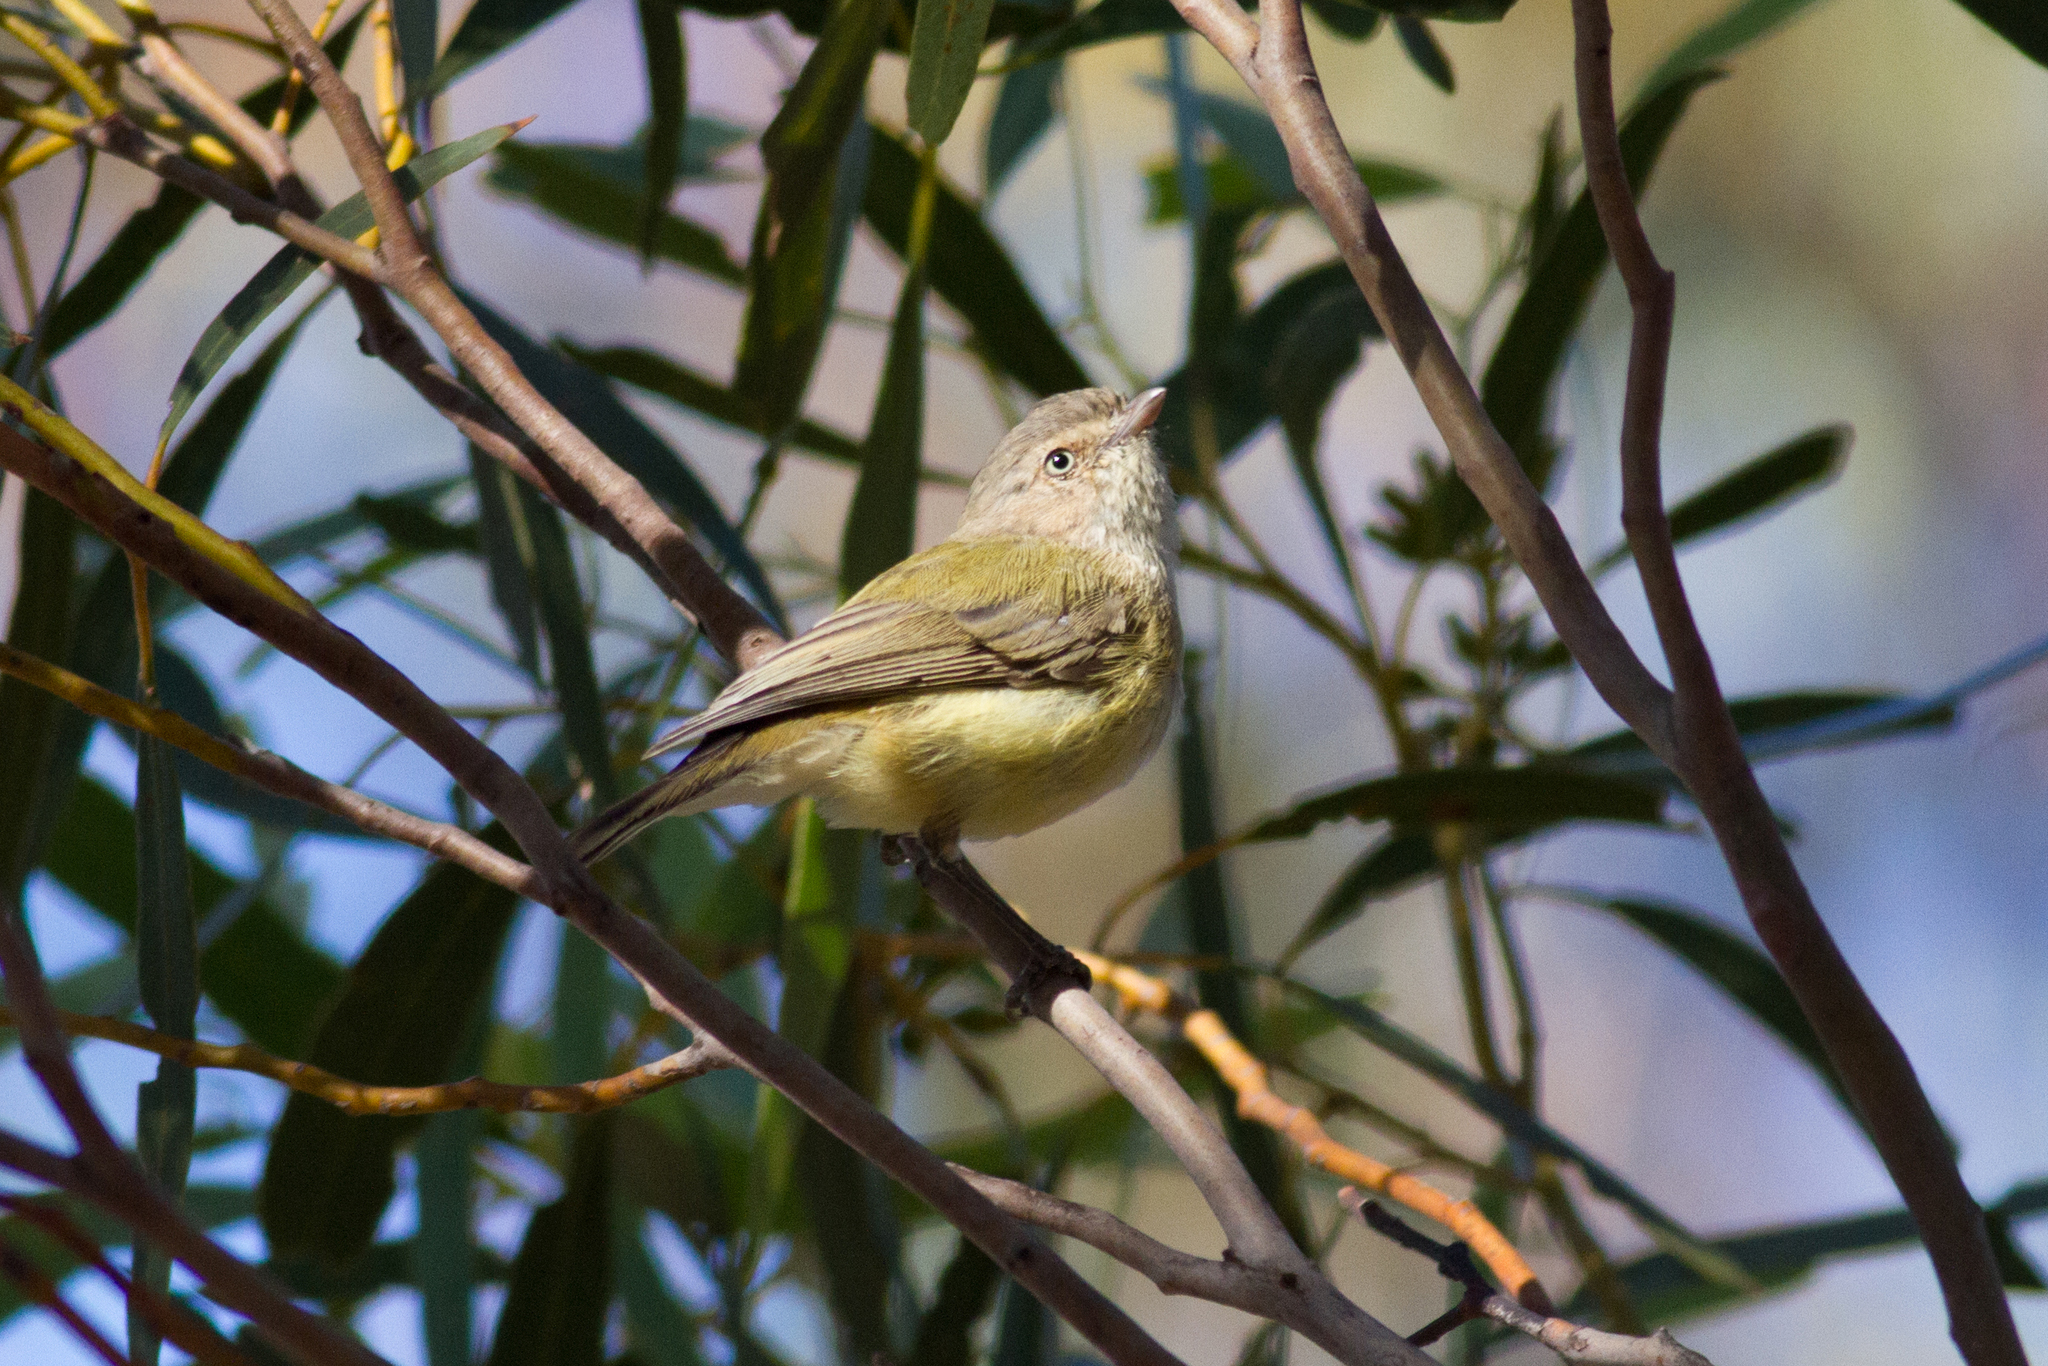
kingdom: Animalia
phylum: Chordata
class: Aves
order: Passeriformes
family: Acanthizidae
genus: Smicrornis
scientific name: Smicrornis brevirostris
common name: Weebill
